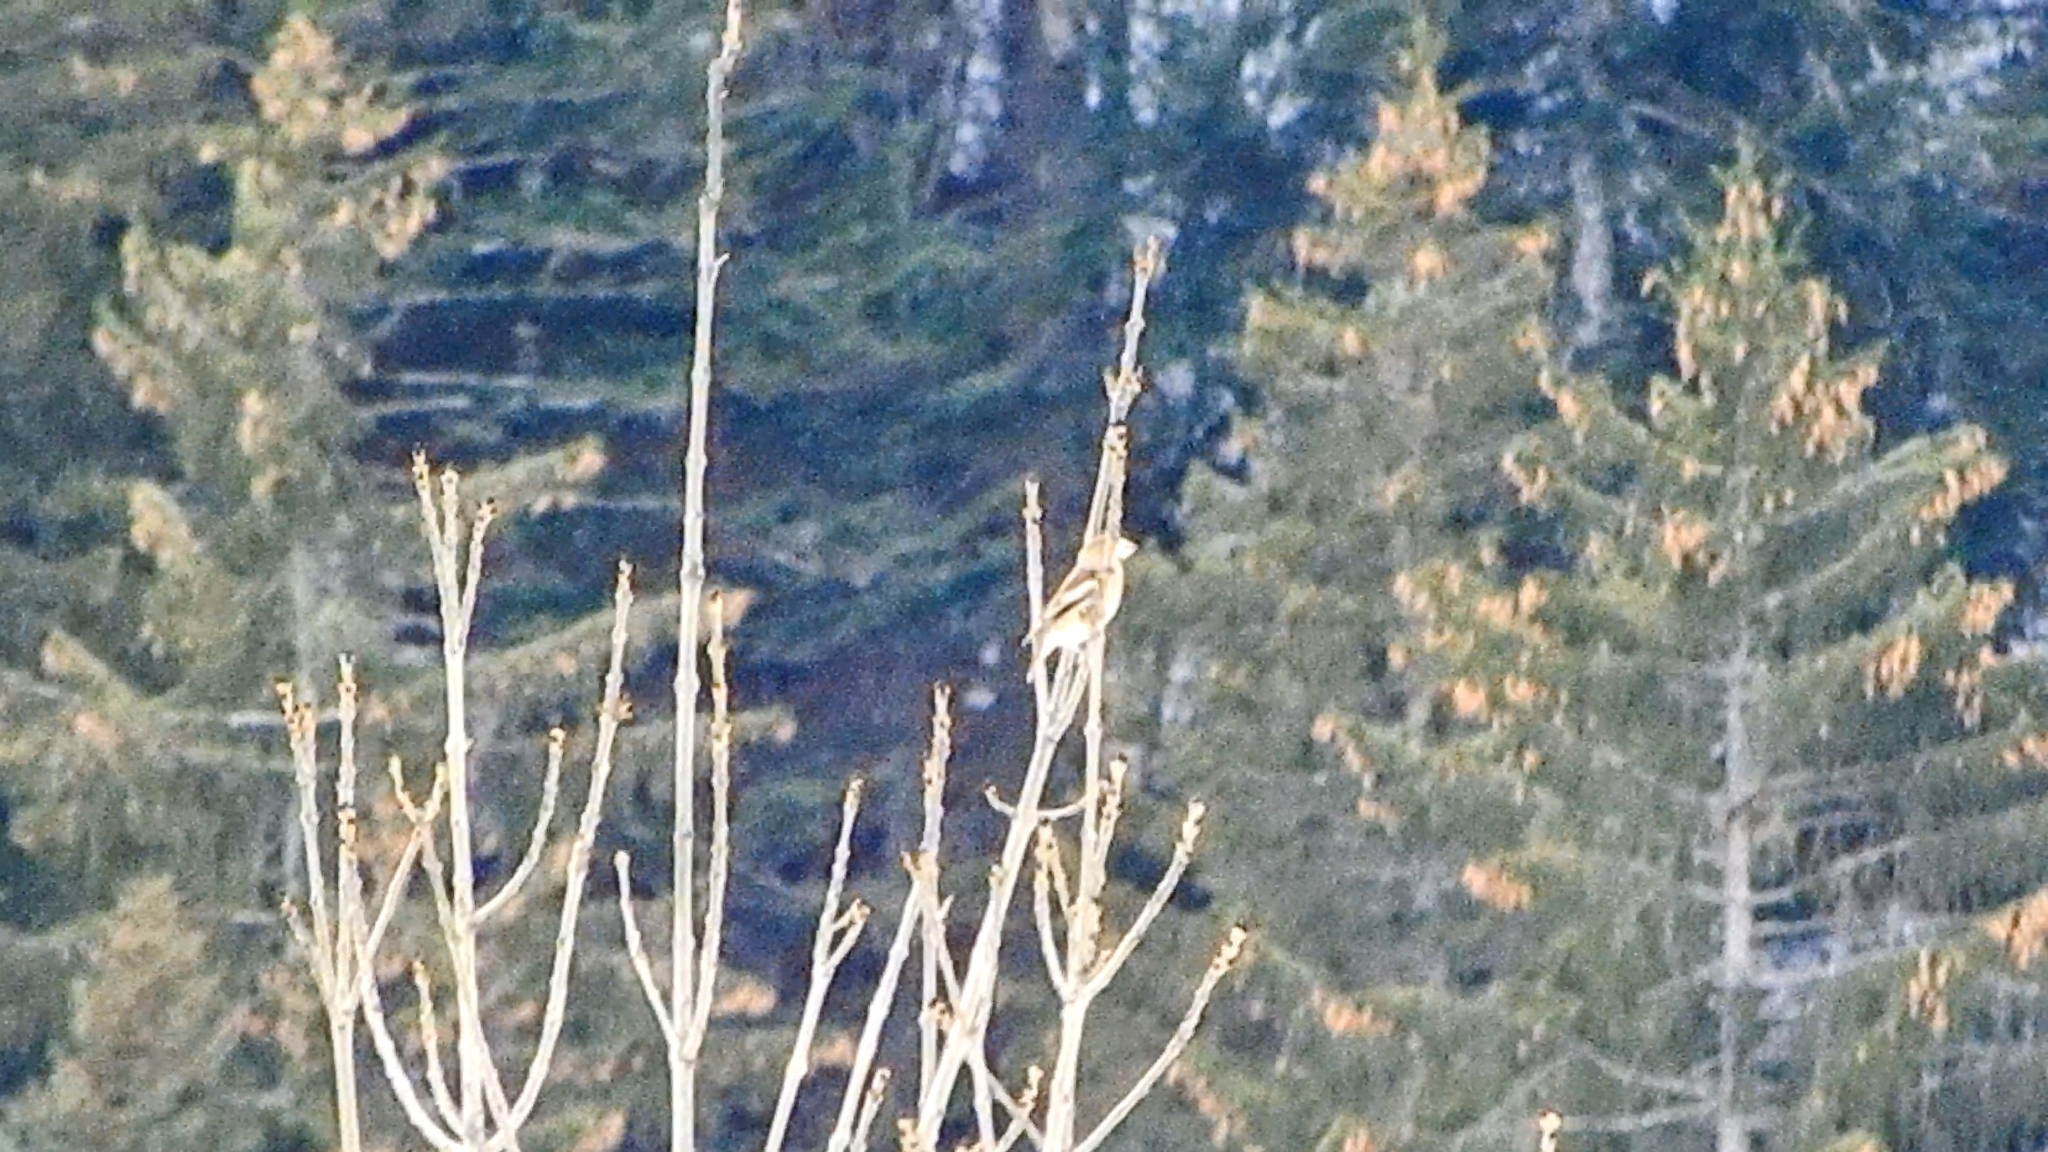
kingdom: Animalia
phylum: Chordata
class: Aves
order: Passeriformes
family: Fringillidae
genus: Coccothraustes
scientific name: Coccothraustes coccothraustes
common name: Hawfinch
